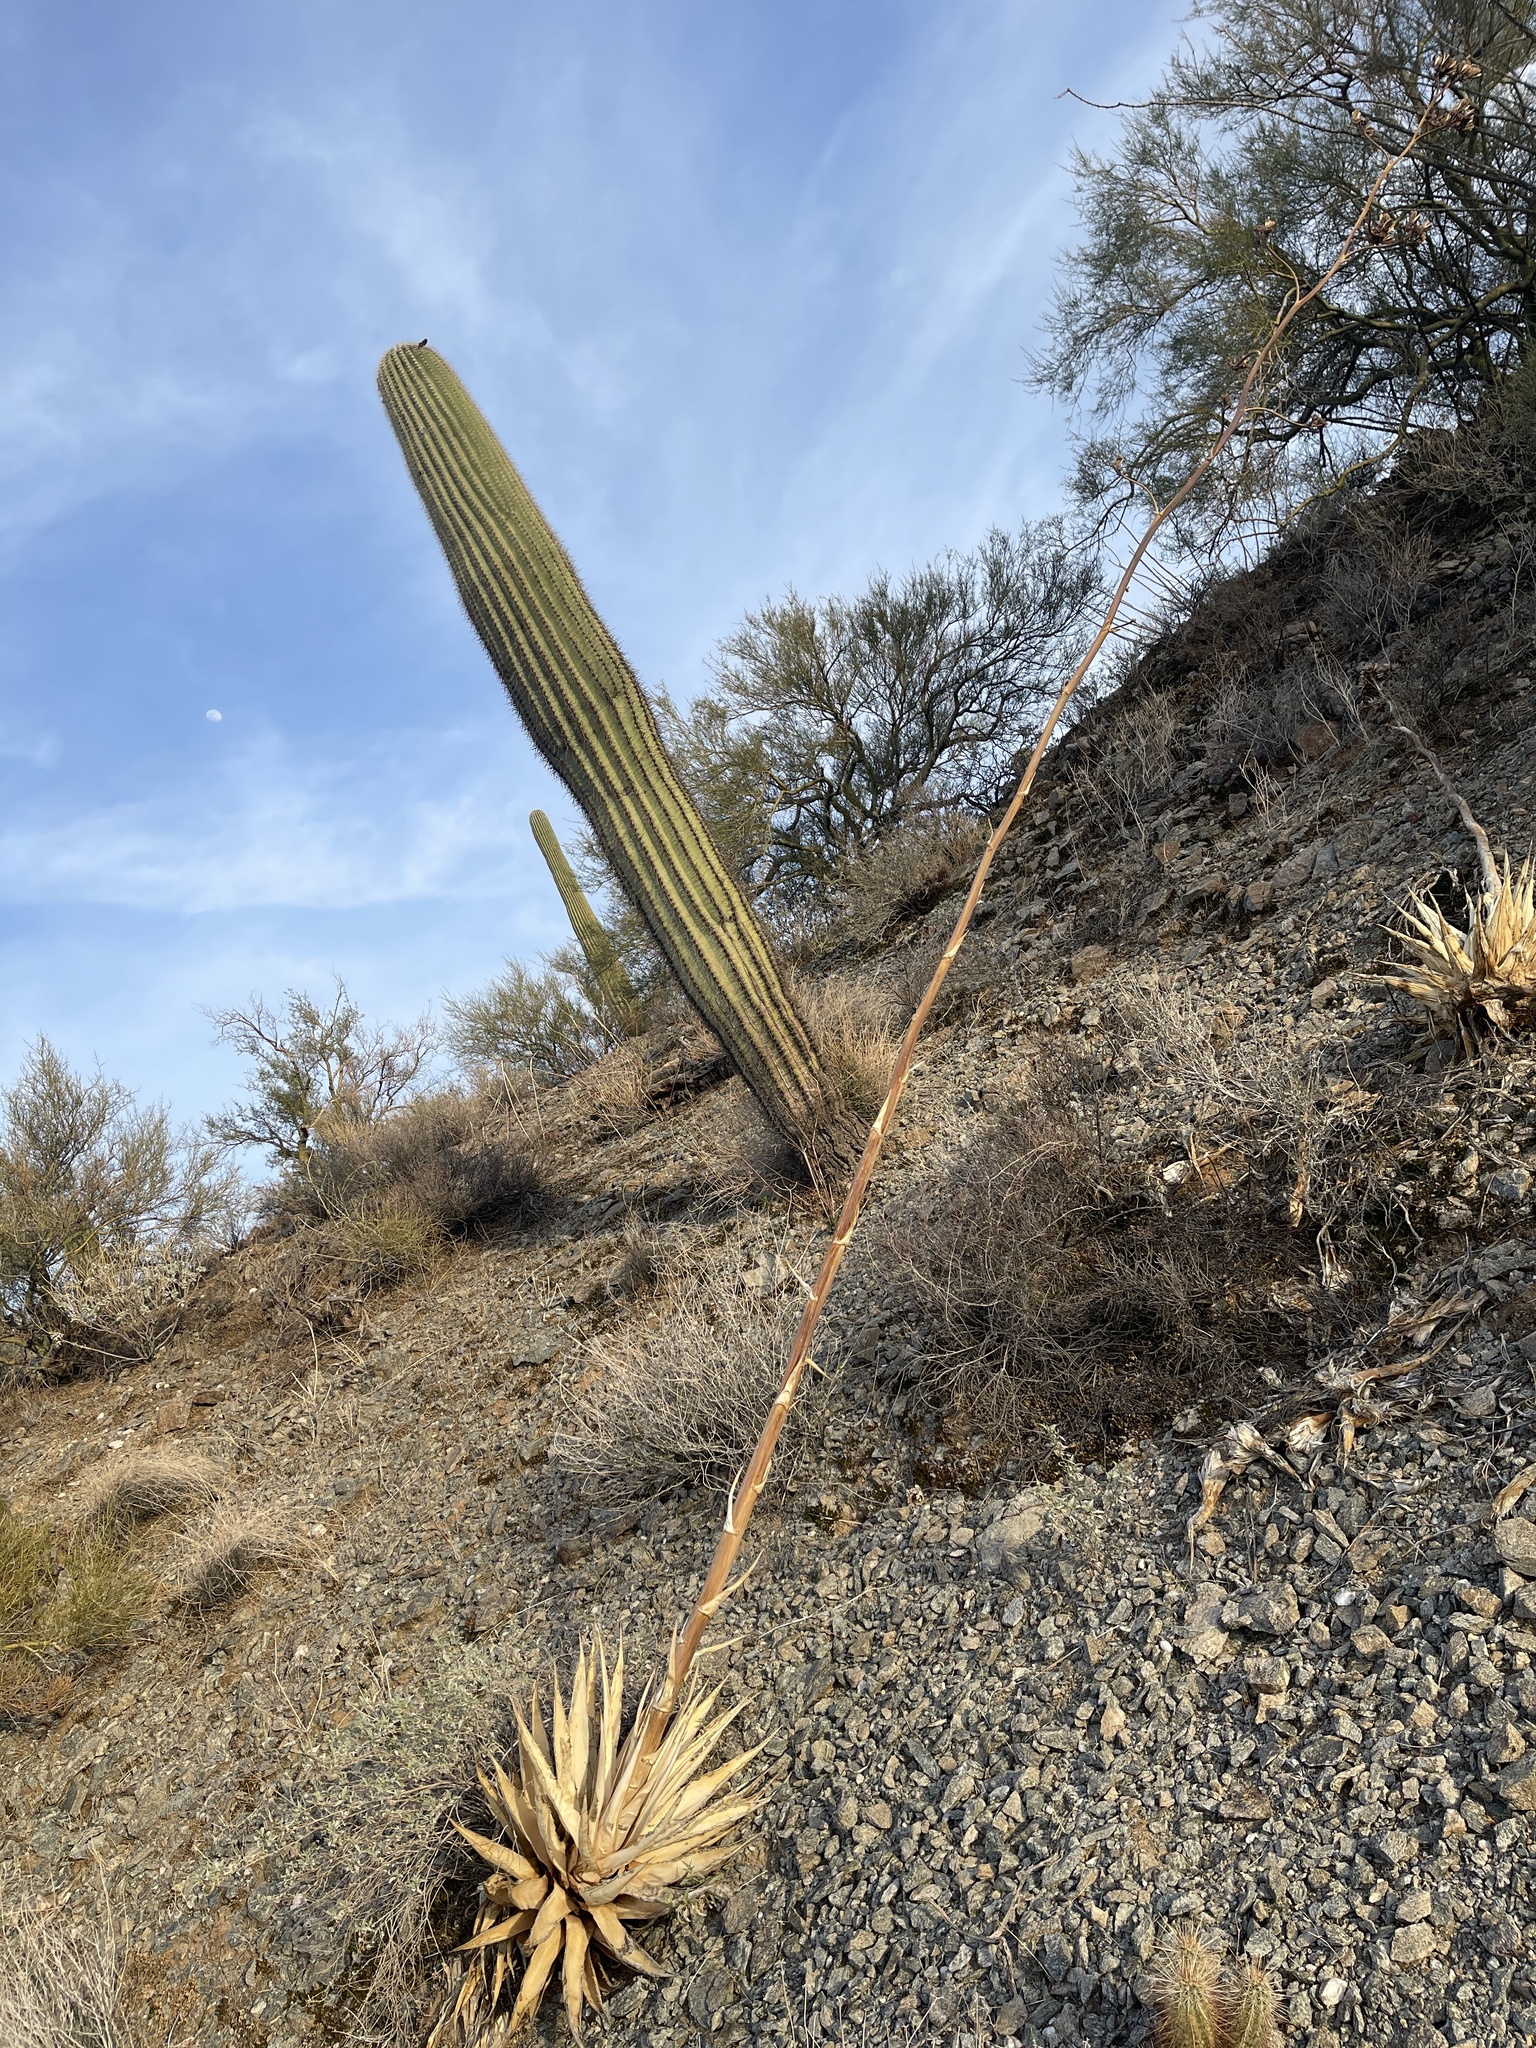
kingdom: Plantae
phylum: Tracheophyta
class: Liliopsida
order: Asparagales
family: Asparagaceae
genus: Agave
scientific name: Agave simplex
